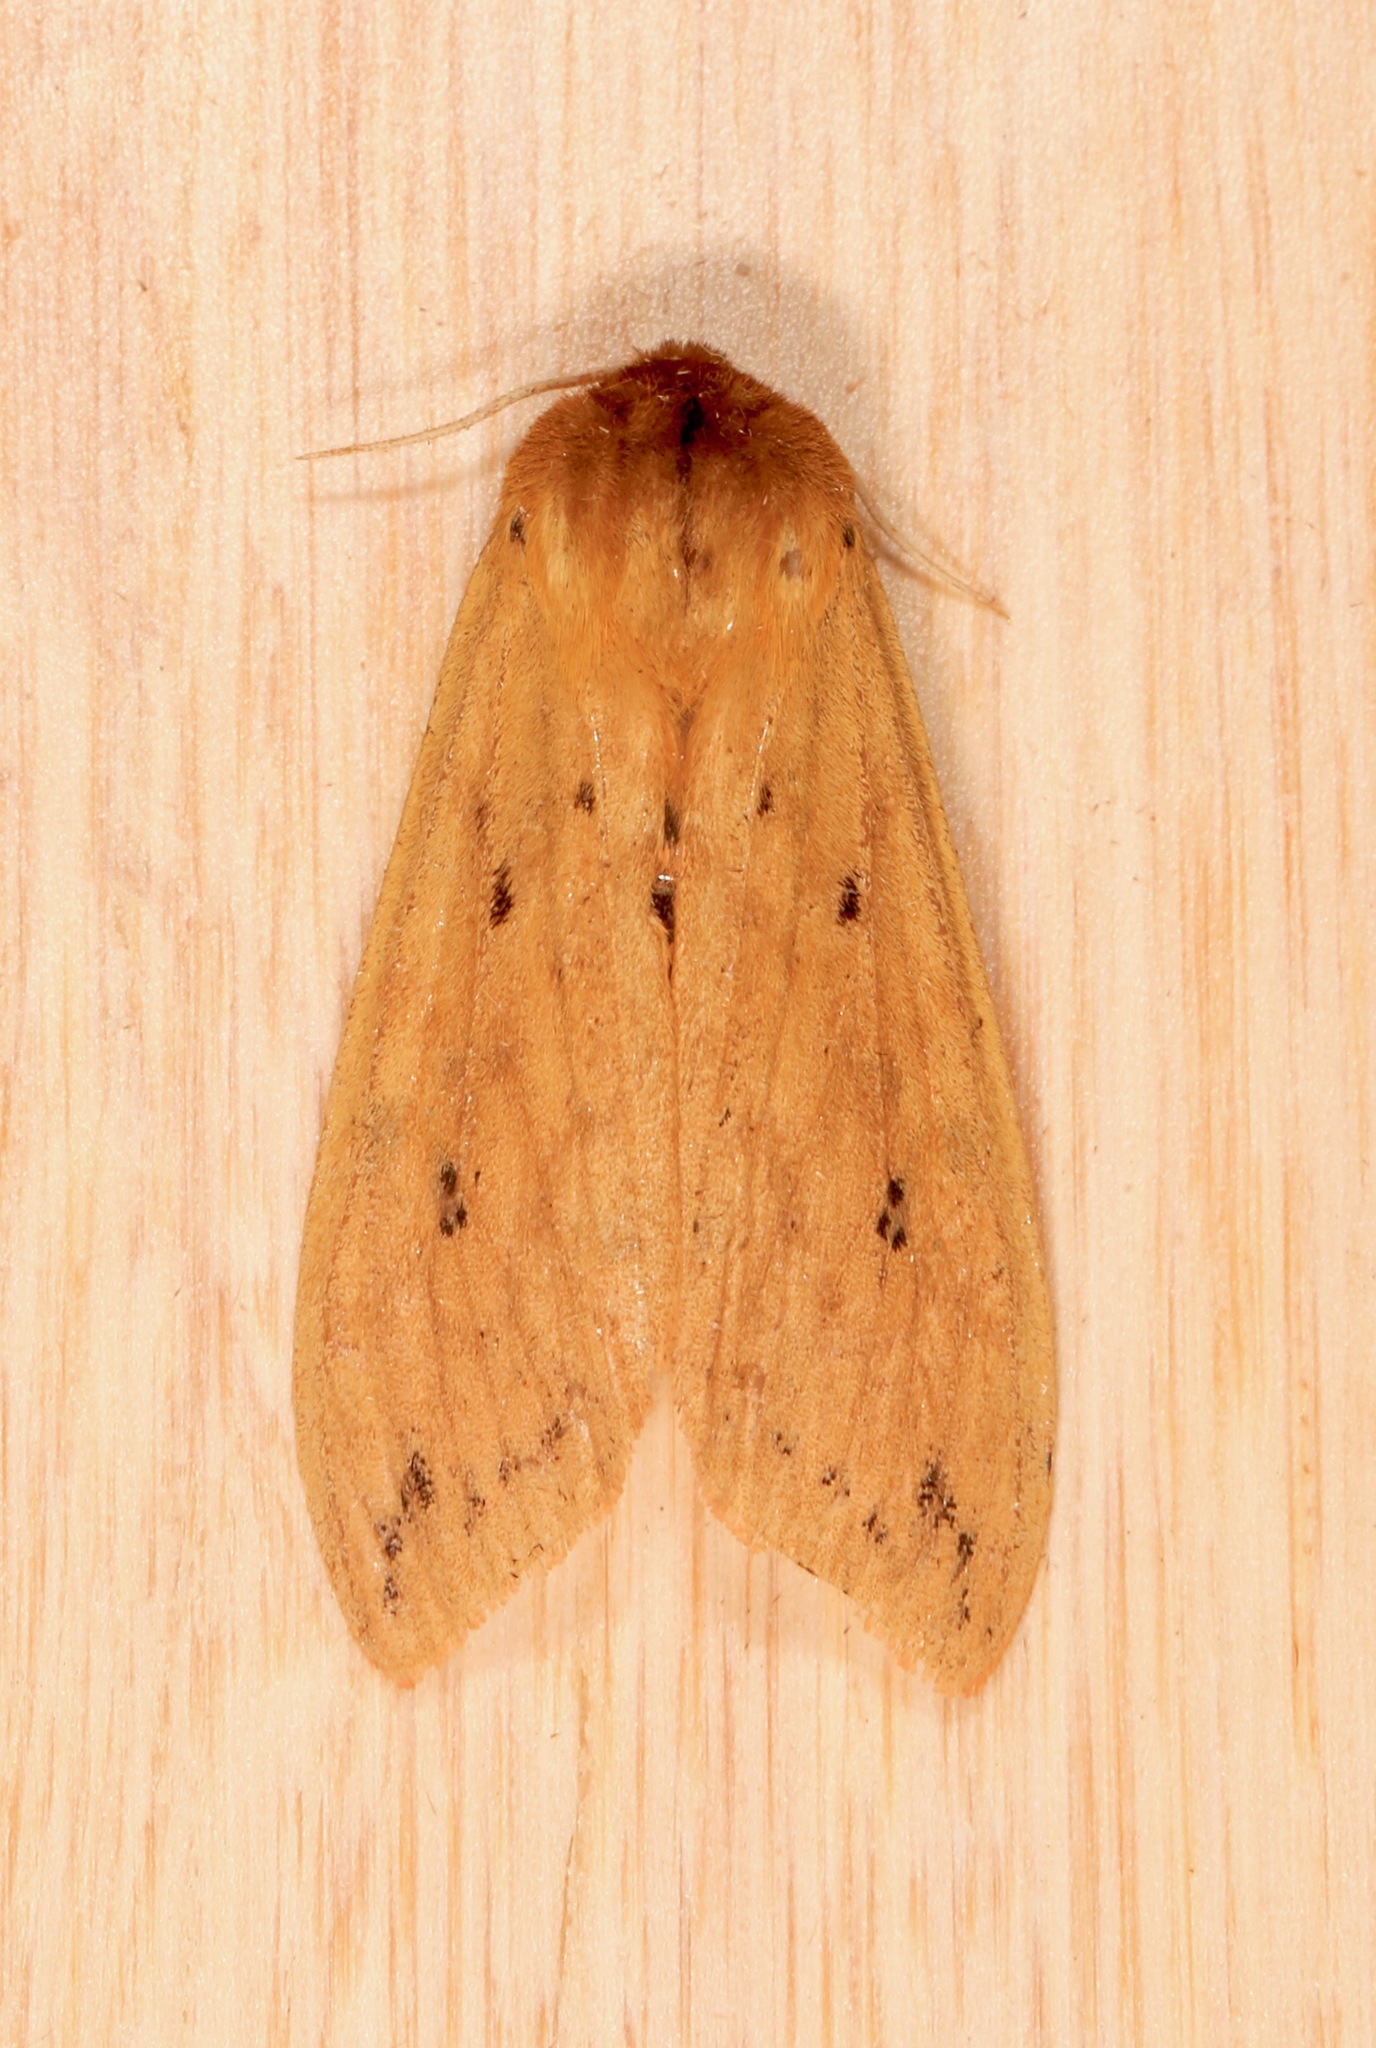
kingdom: Animalia
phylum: Arthropoda
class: Insecta
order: Lepidoptera
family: Erebidae
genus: Pyrrharctia
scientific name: Pyrrharctia isabella
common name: Isabella tiger moth
